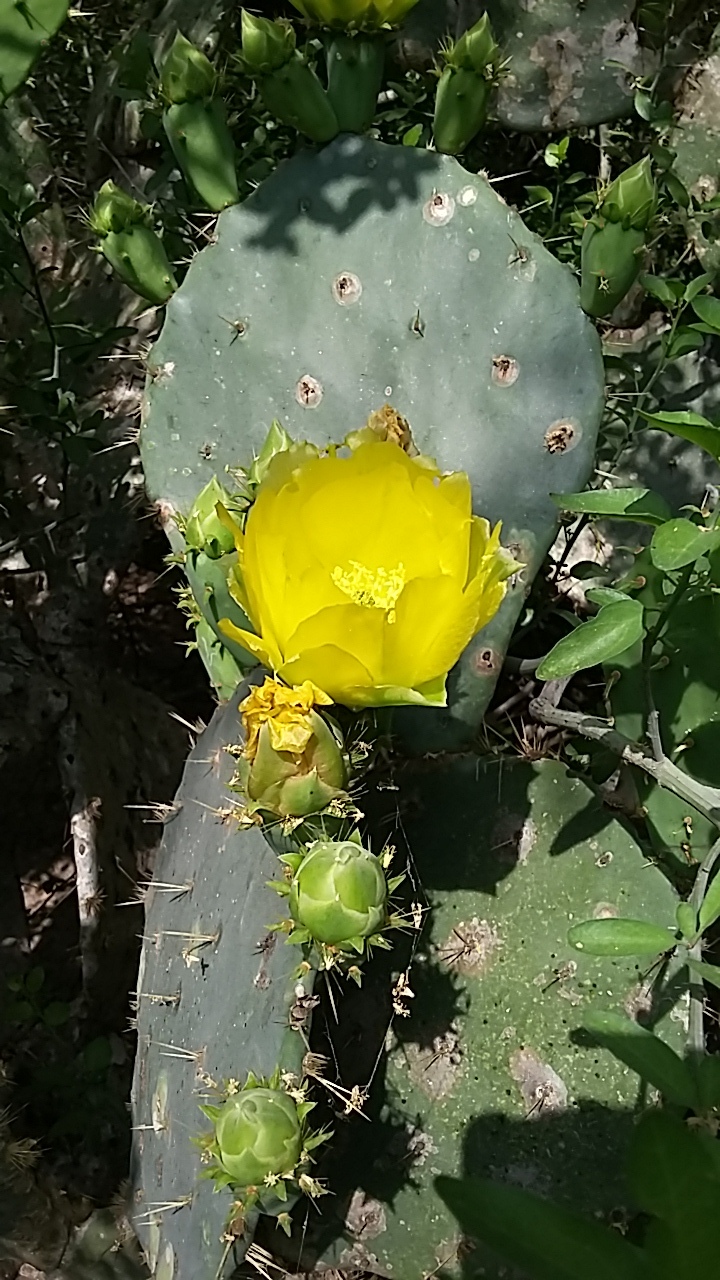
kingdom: Plantae
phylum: Tracheophyta
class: Magnoliopsida
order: Caryophyllales
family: Cactaceae
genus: Opuntia
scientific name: Opuntia engelmannii
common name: Cactus-apple
